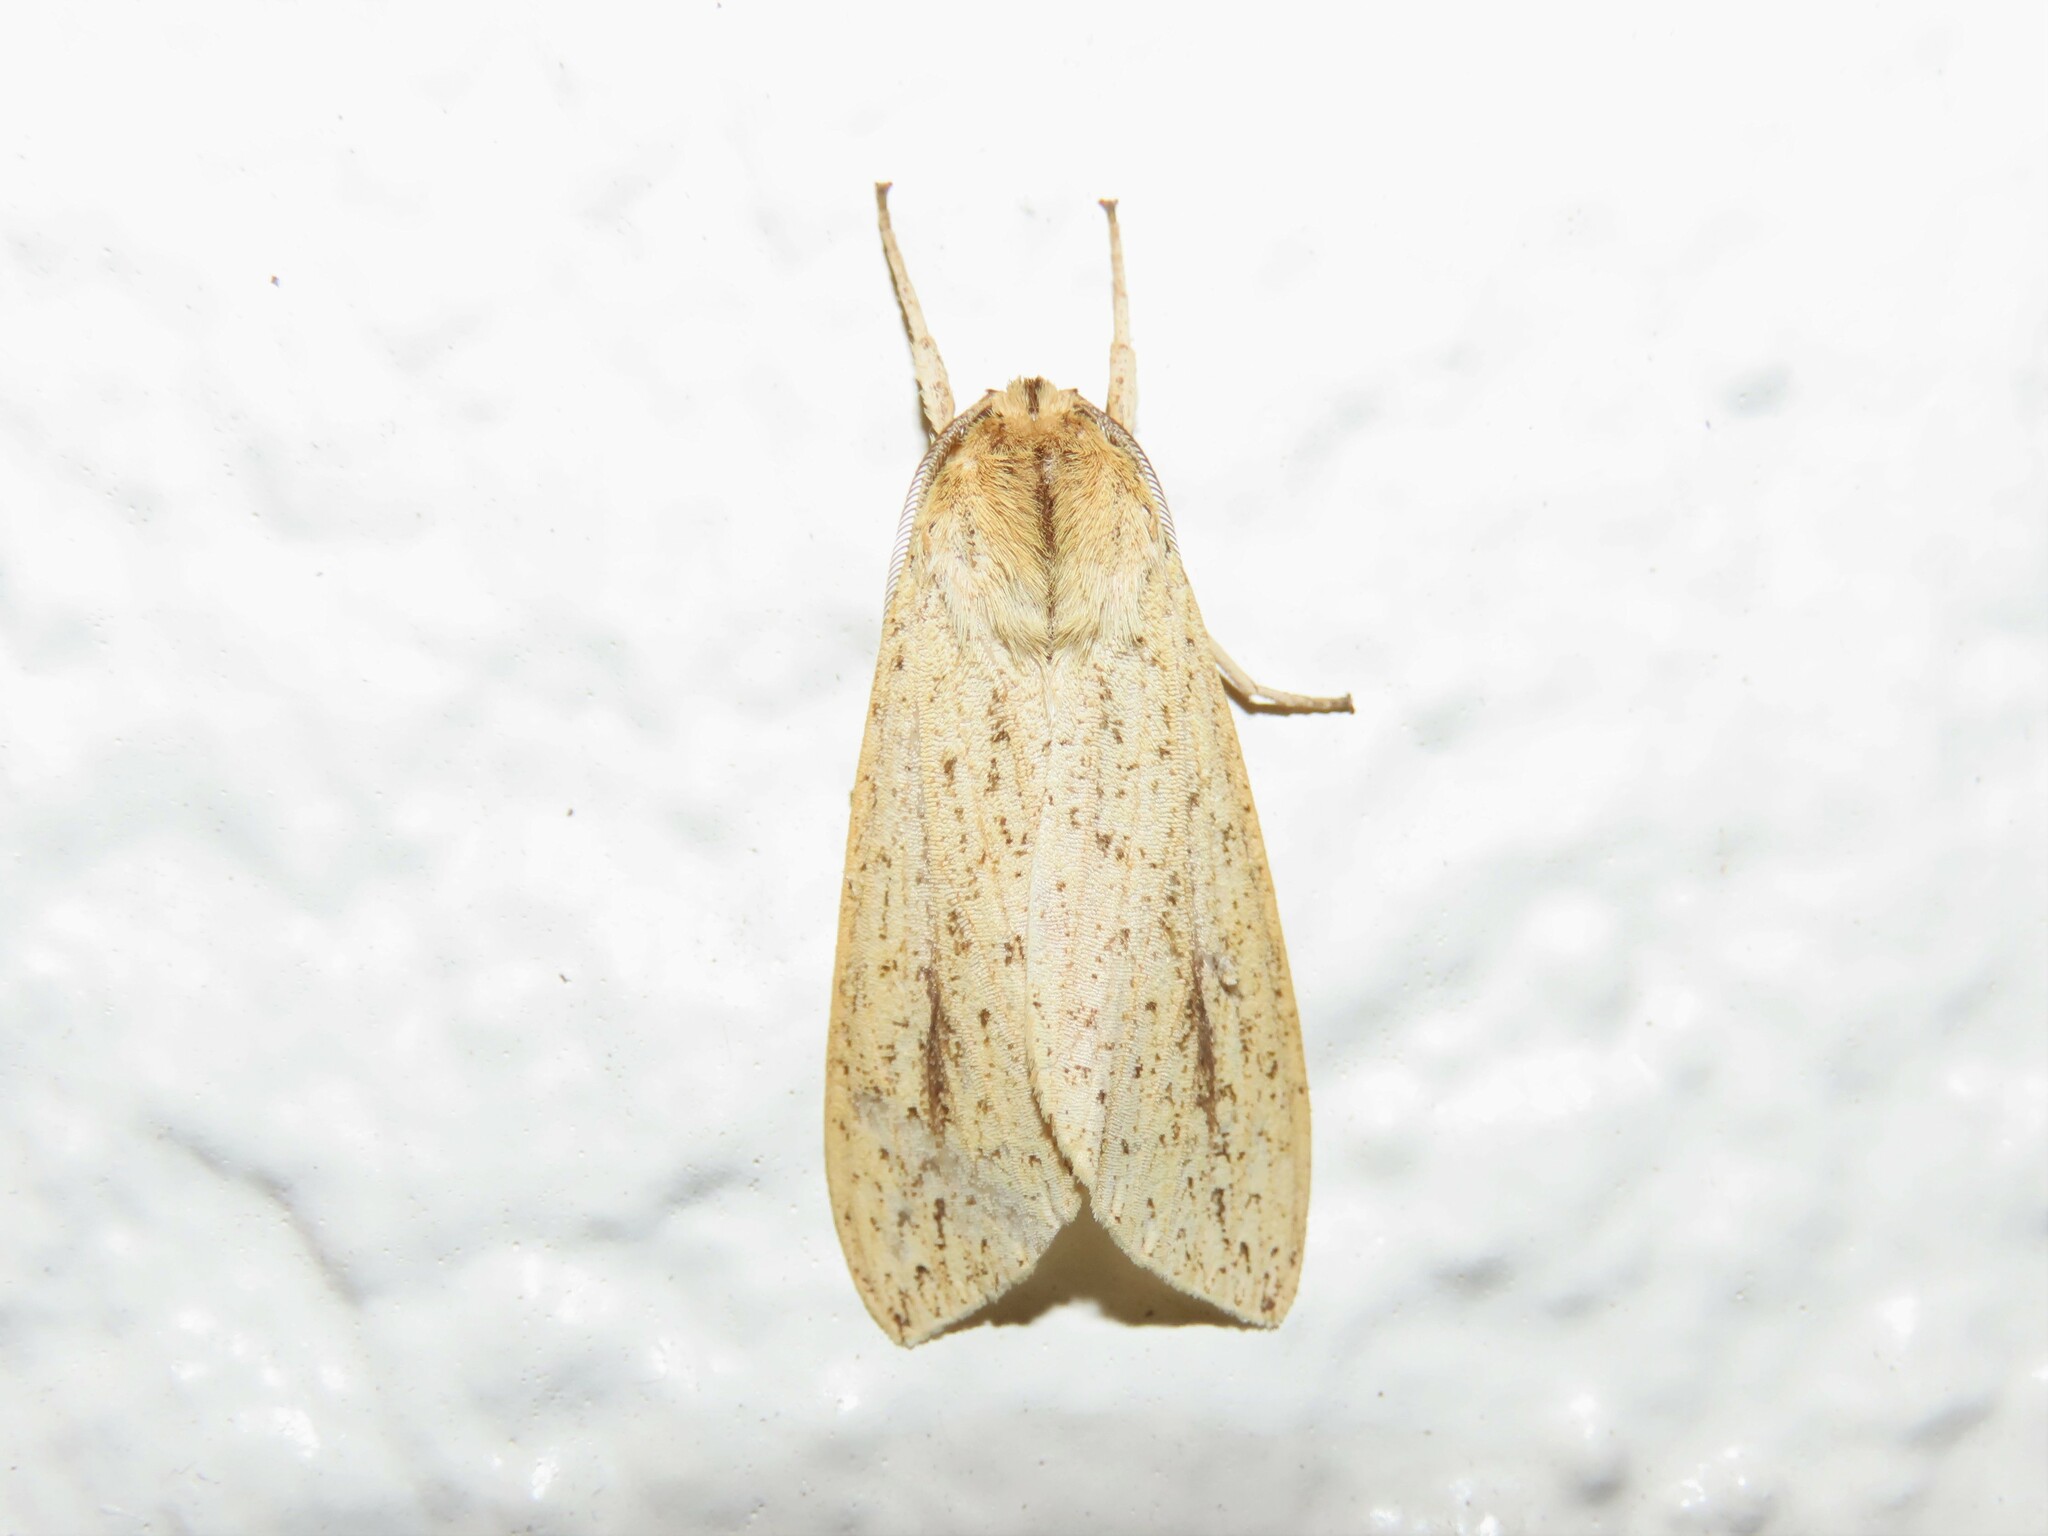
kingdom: Animalia
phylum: Arthropoda
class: Insecta
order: Lepidoptera
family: Erebidae
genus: Leucanopsis
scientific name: Leucanopsis longa
